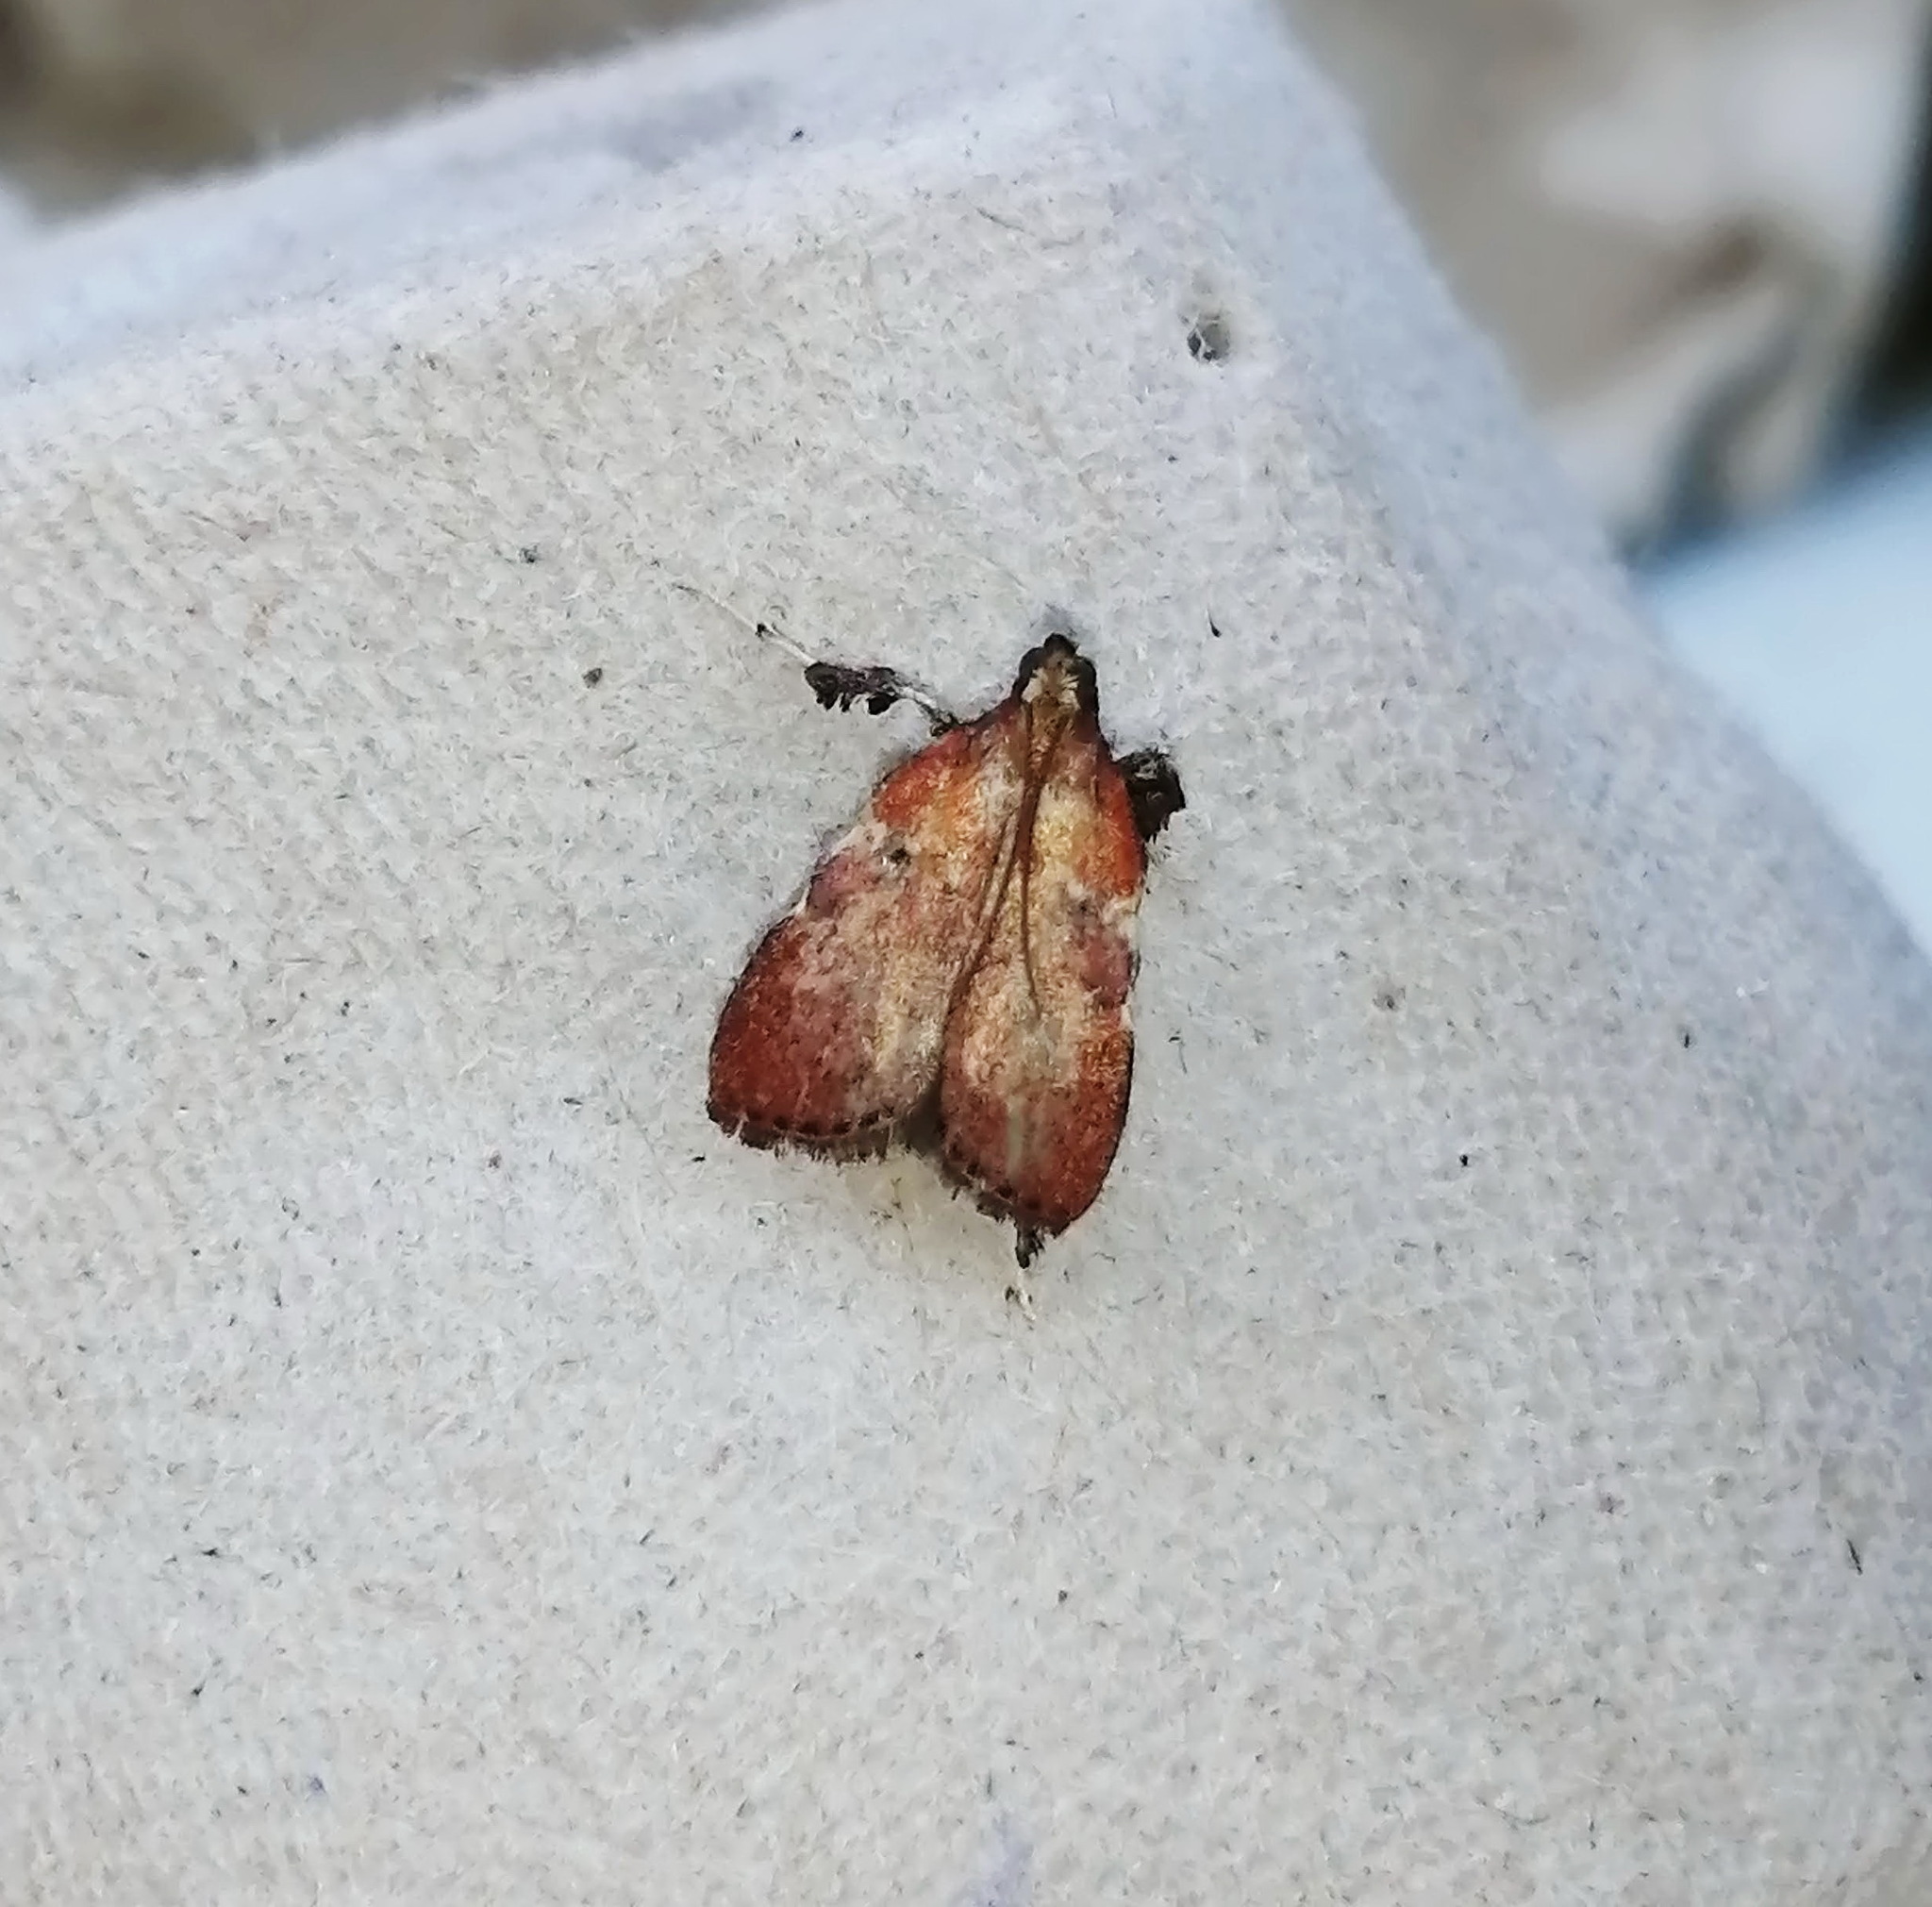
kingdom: Animalia
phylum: Arthropoda
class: Insecta
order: Lepidoptera
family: Pyralidae
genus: Galasa
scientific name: Galasa nigrinodis
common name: Boxwood leaftier moth
